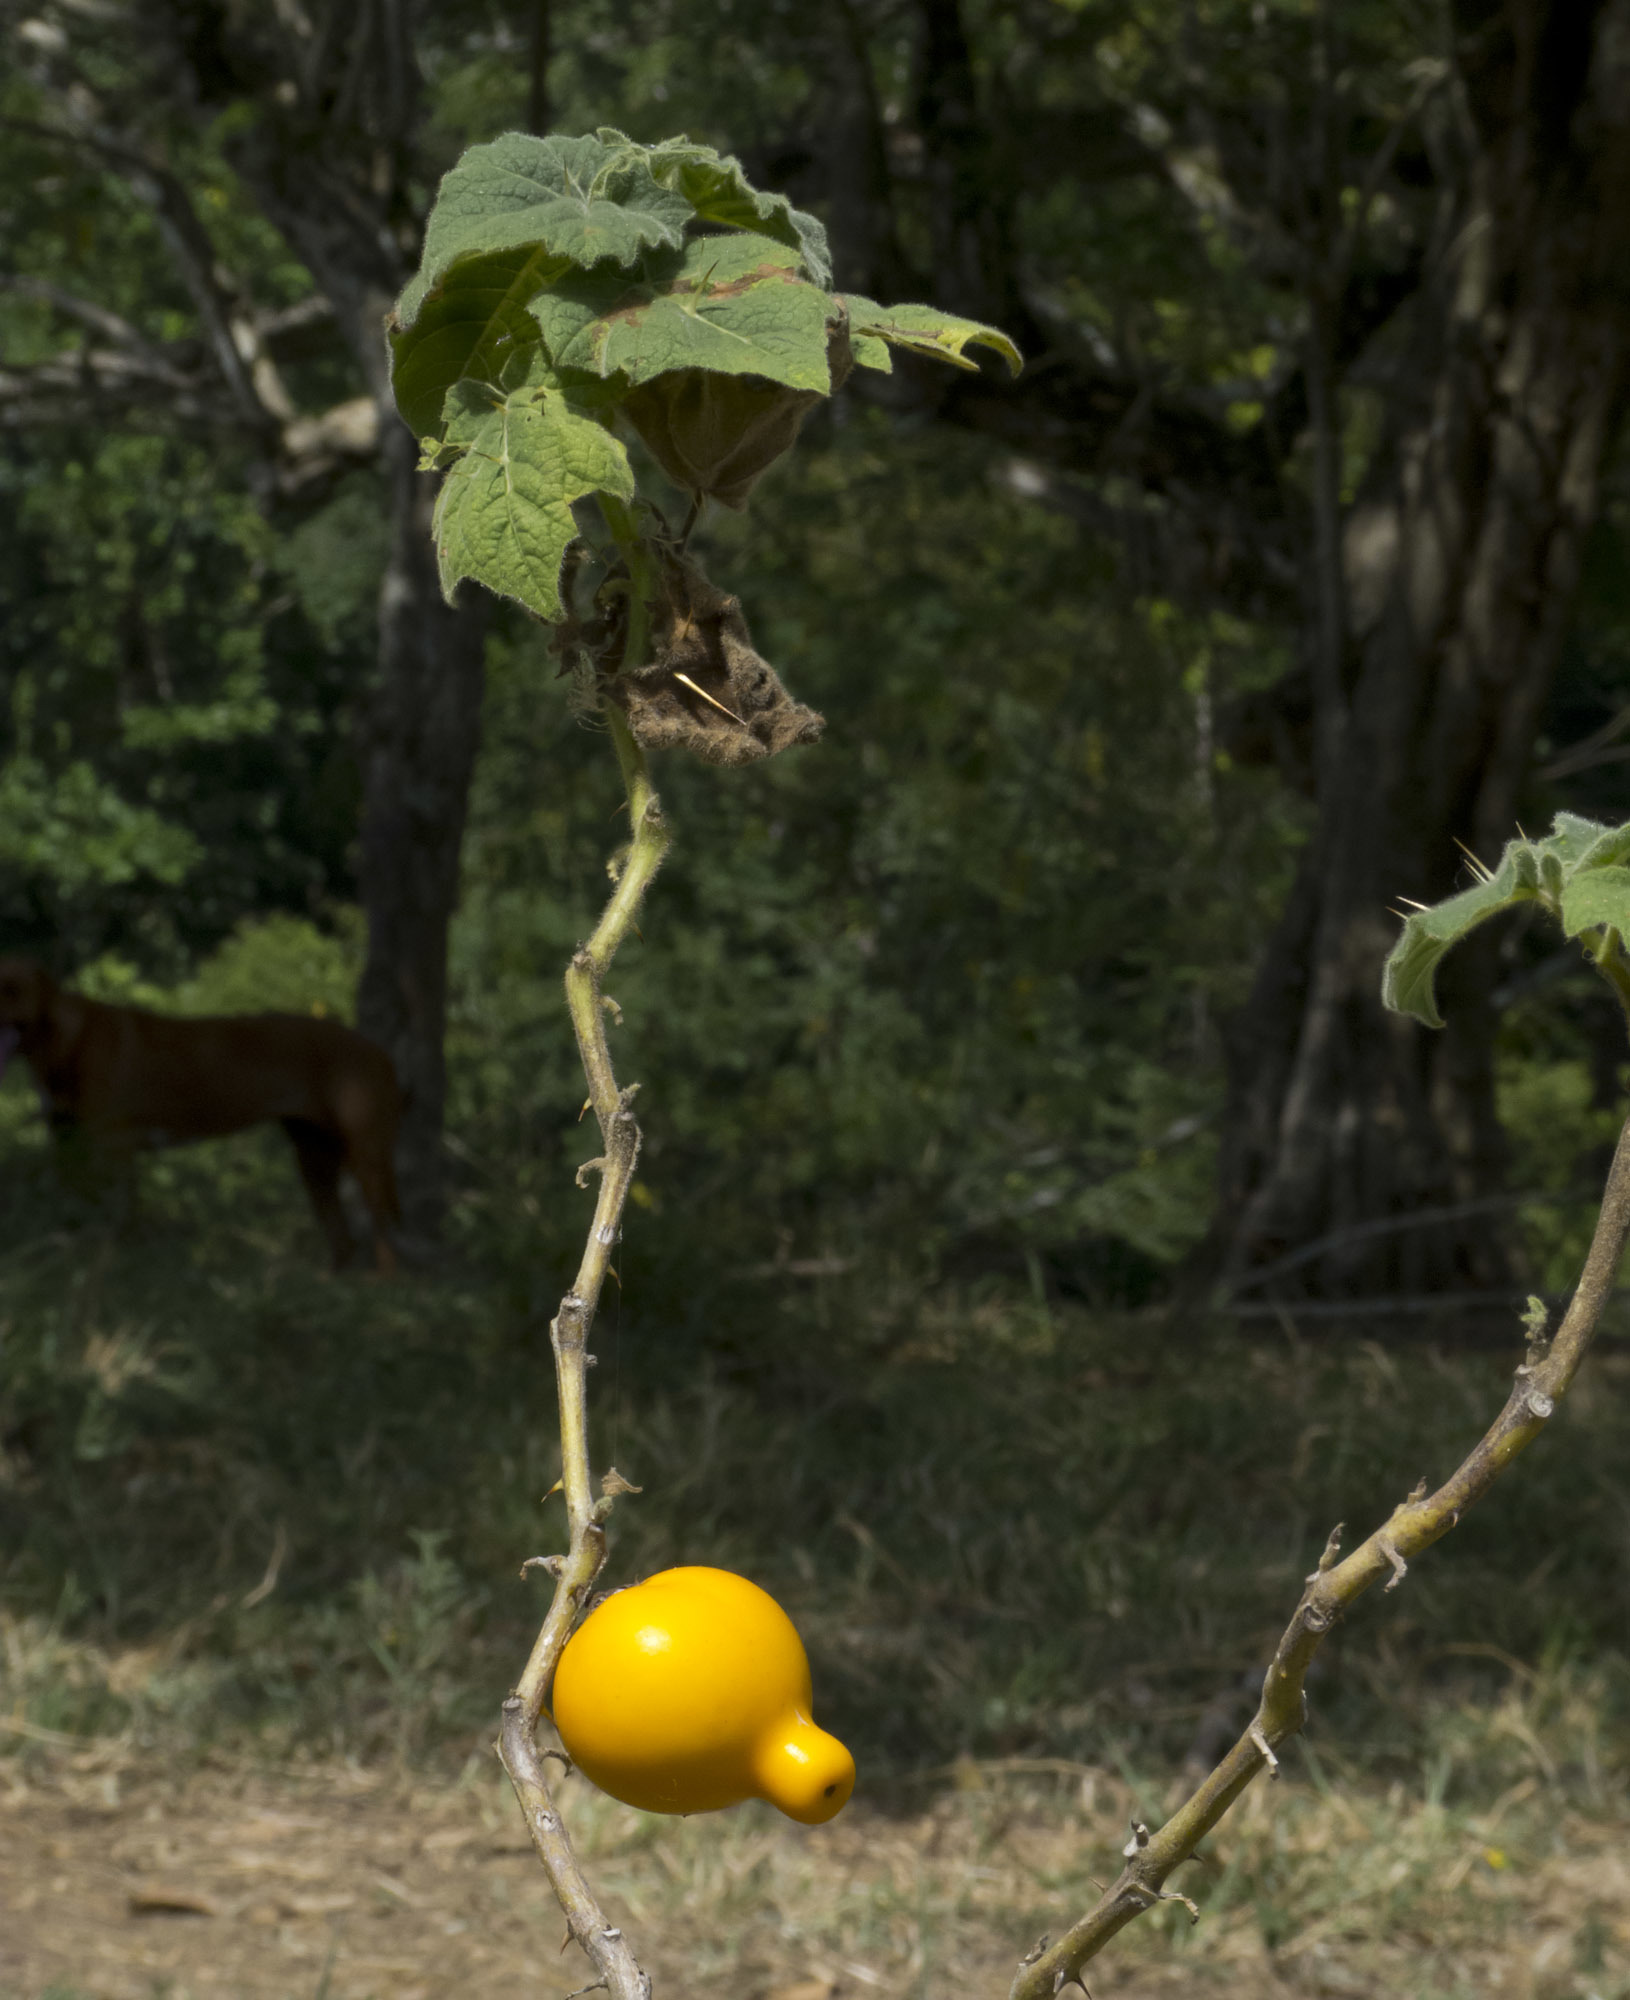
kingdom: Plantae
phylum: Tracheophyta
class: Magnoliopsida
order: Solanales
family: Solanaceae
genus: Solanum
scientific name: Solanum mammosum
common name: Nipple fruit
